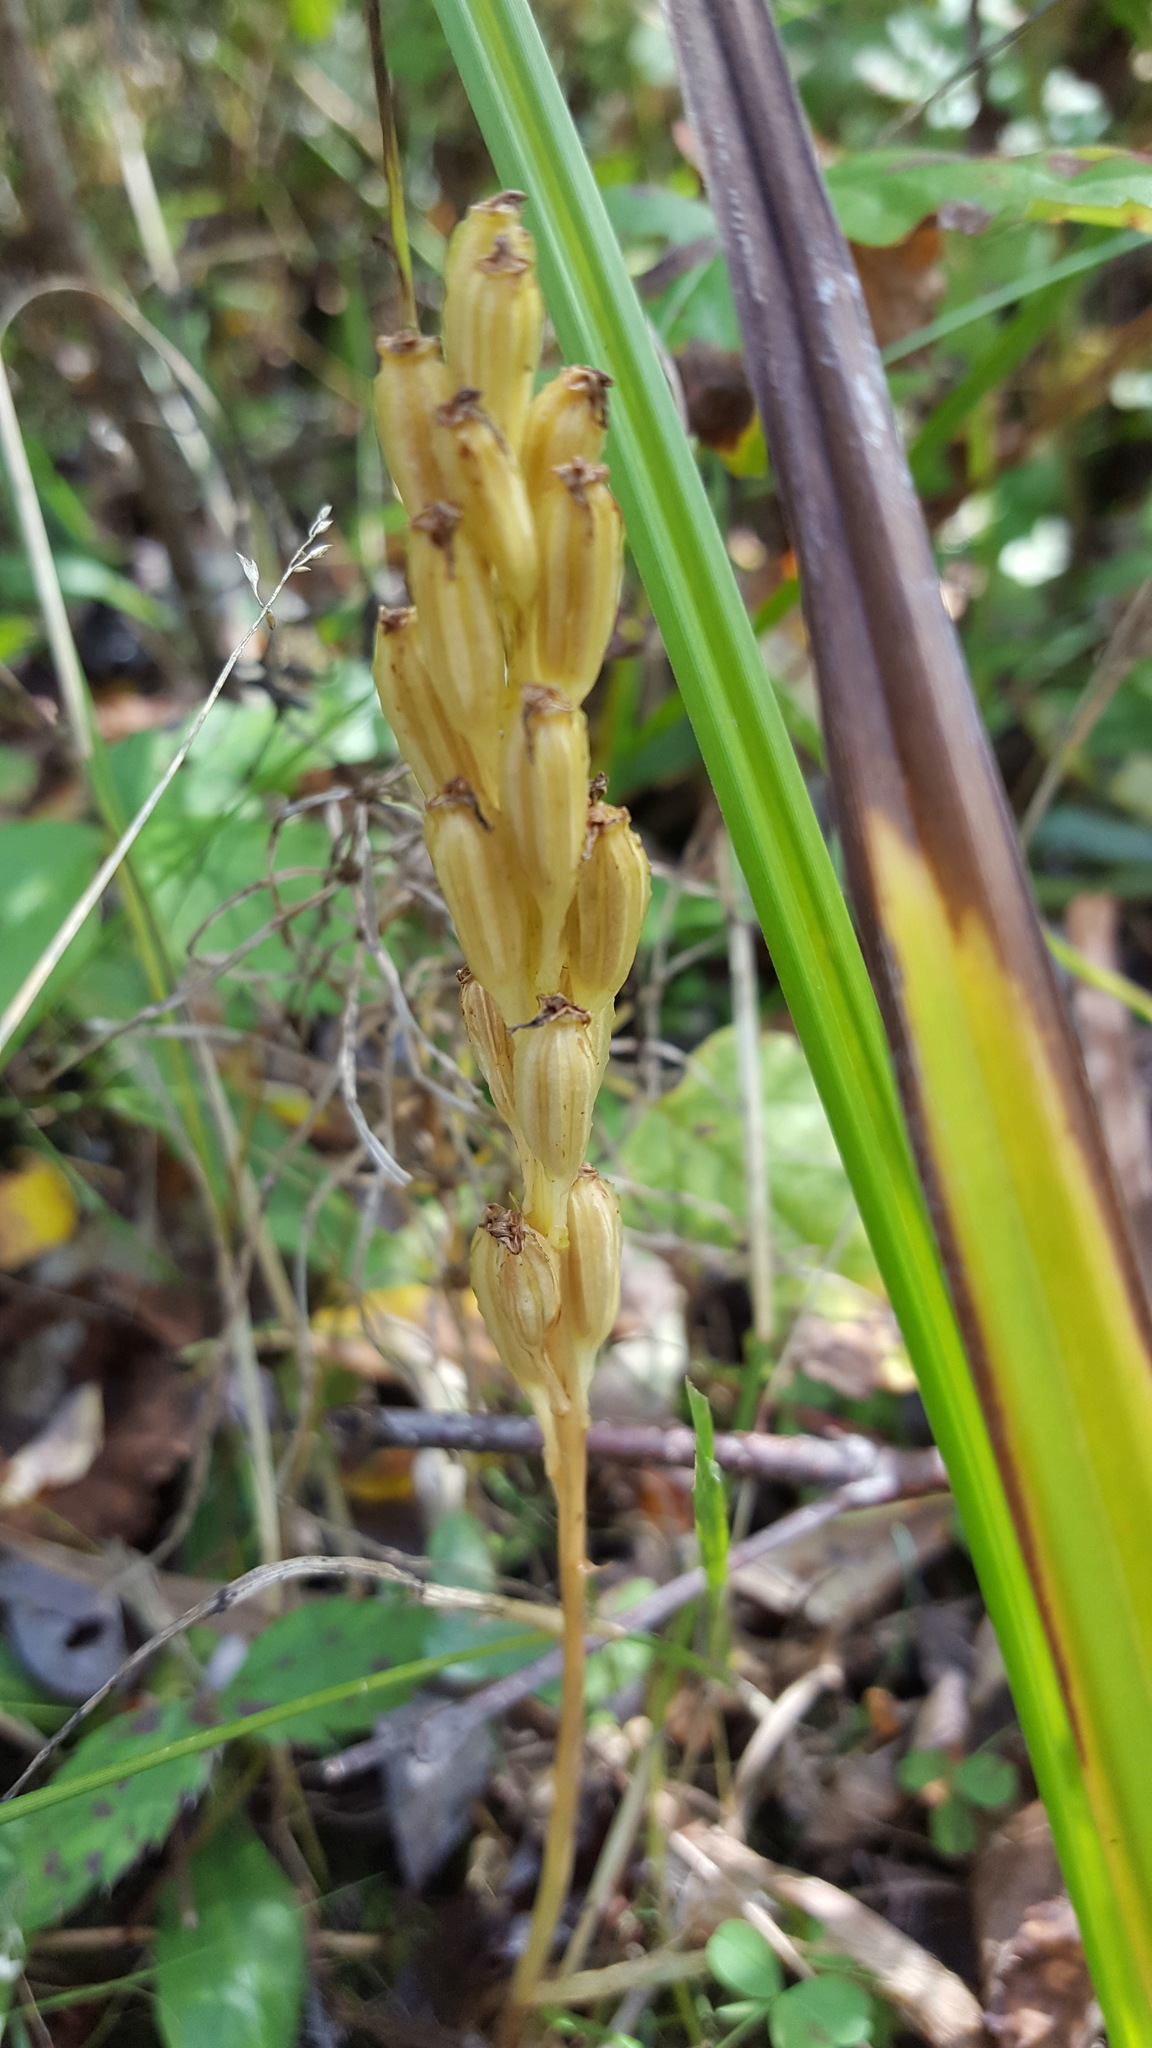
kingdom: Animalia
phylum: Arthropoda
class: Insecta
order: Coleoptera
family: Curculionidae
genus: Liparis
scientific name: Liparis loeselii
